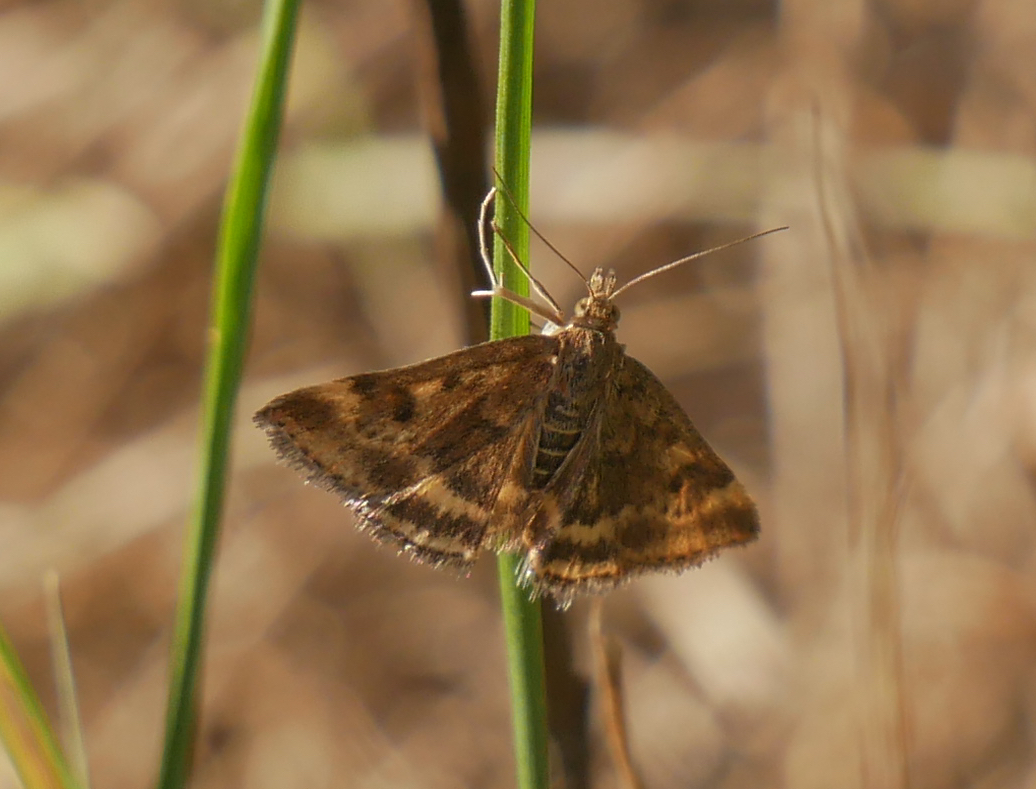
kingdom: Animalia
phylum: Arthropoda
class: Insecta
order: Lepidoptera
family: Crambidae
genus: Pyrausta
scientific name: Pyrausta despicata
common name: Straw-barred pearl
